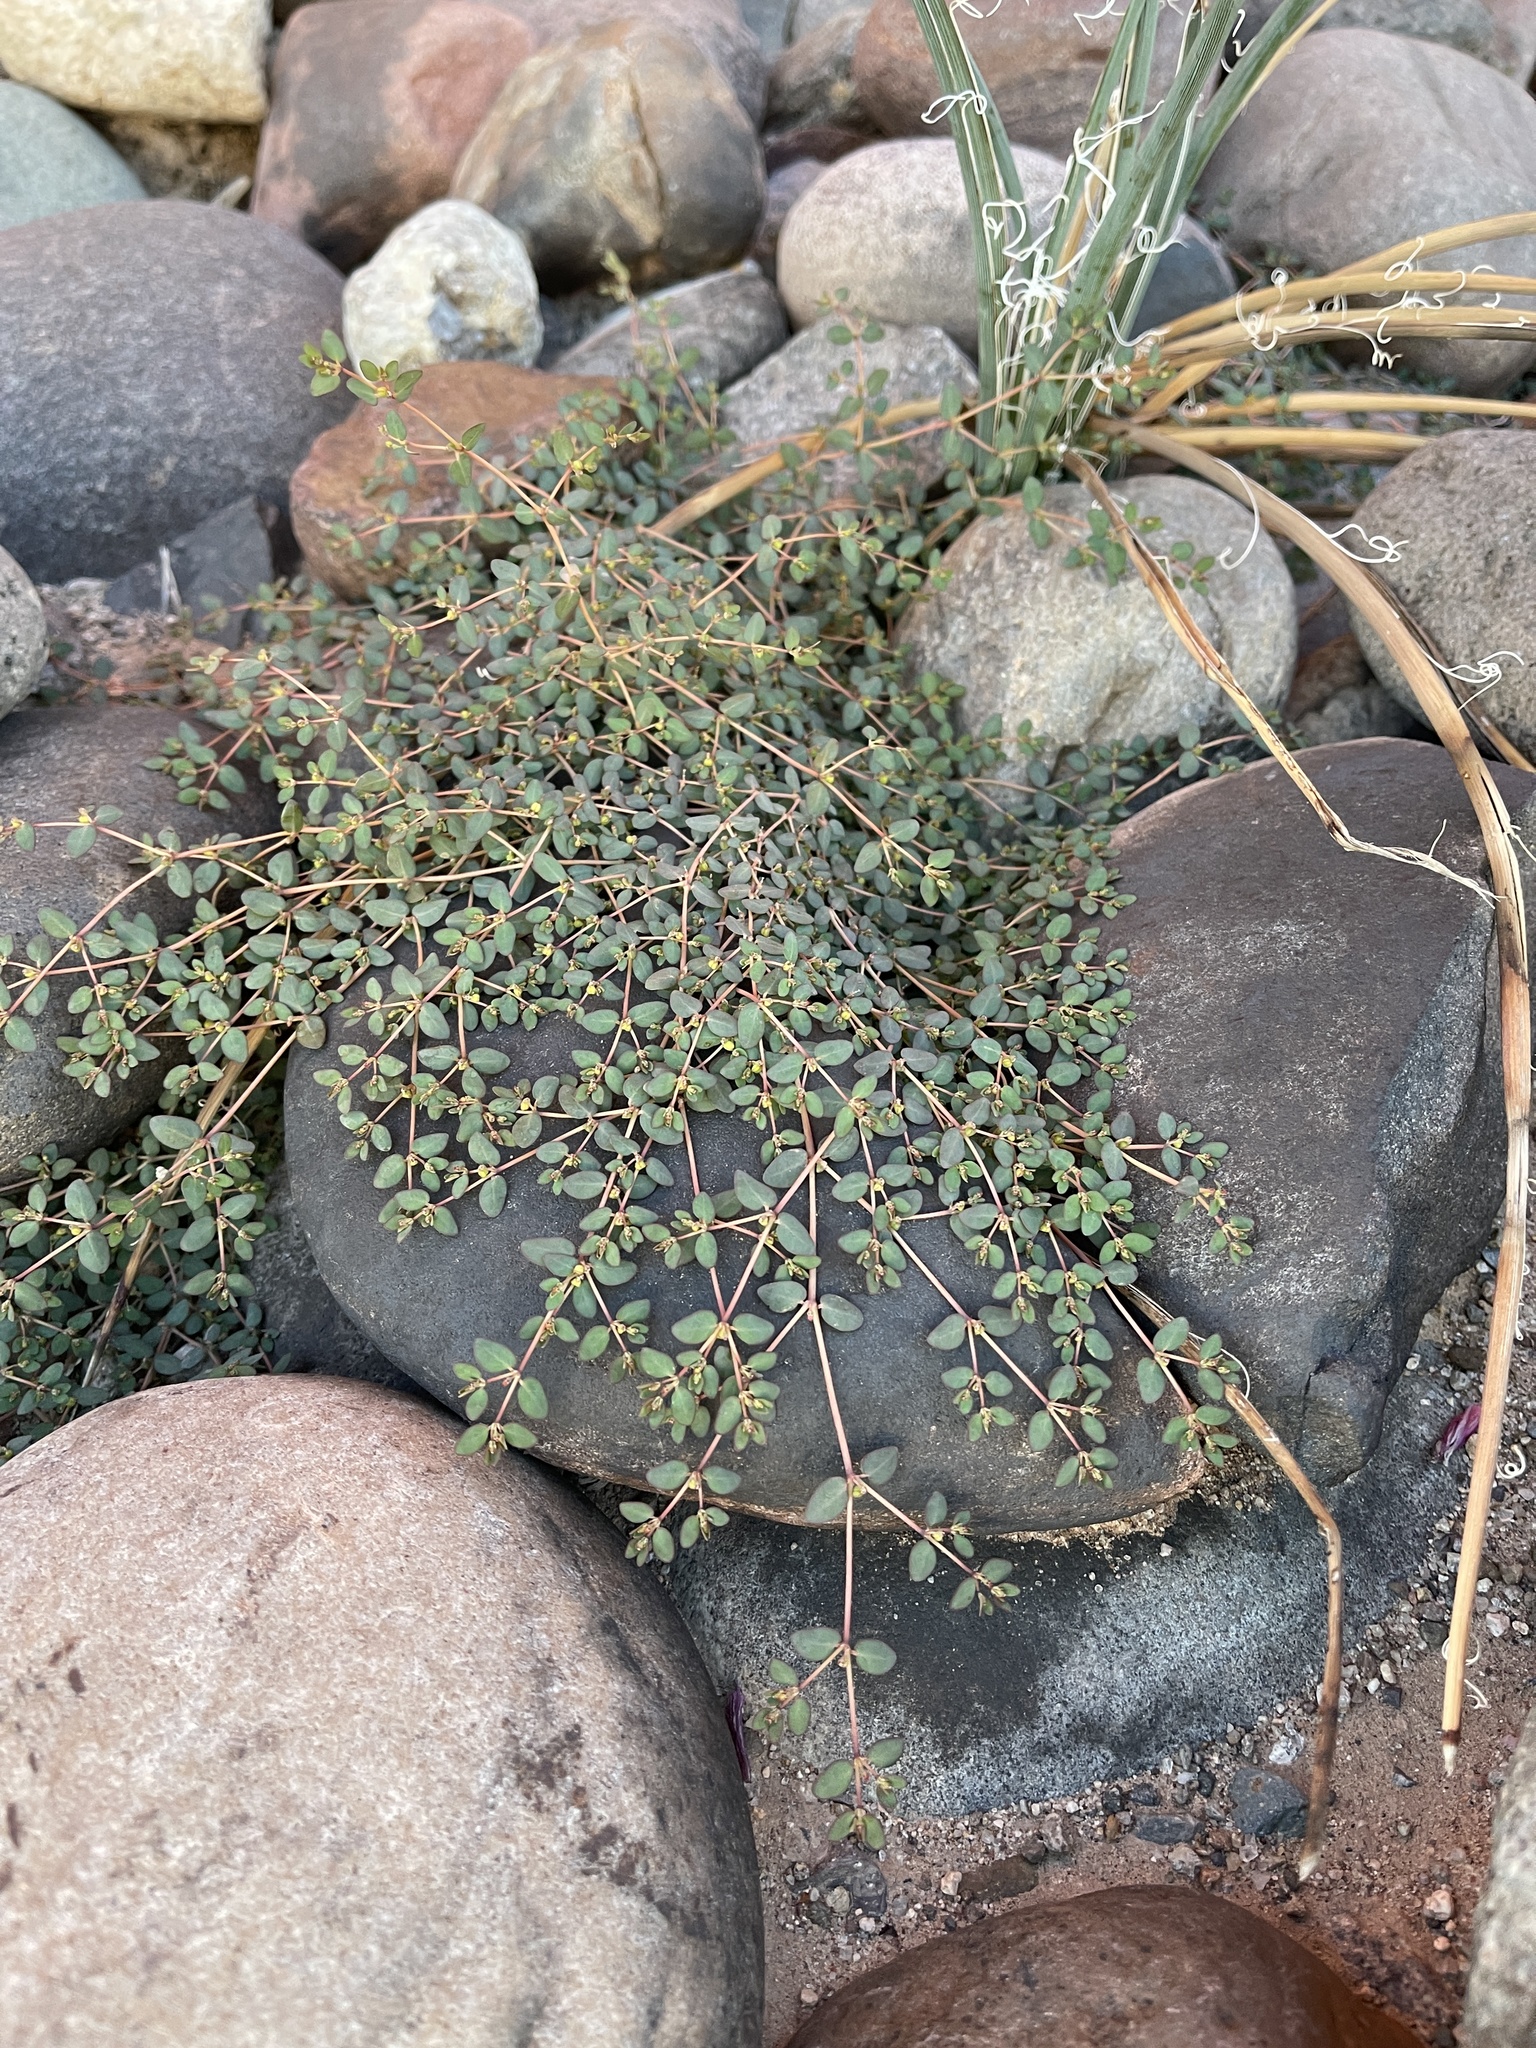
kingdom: Plantae
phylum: Tracheophyta
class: Magnoliopsida
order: Malpighiales
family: Euphorbiaceae
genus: Euphorbia
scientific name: Euphorbia micromera
